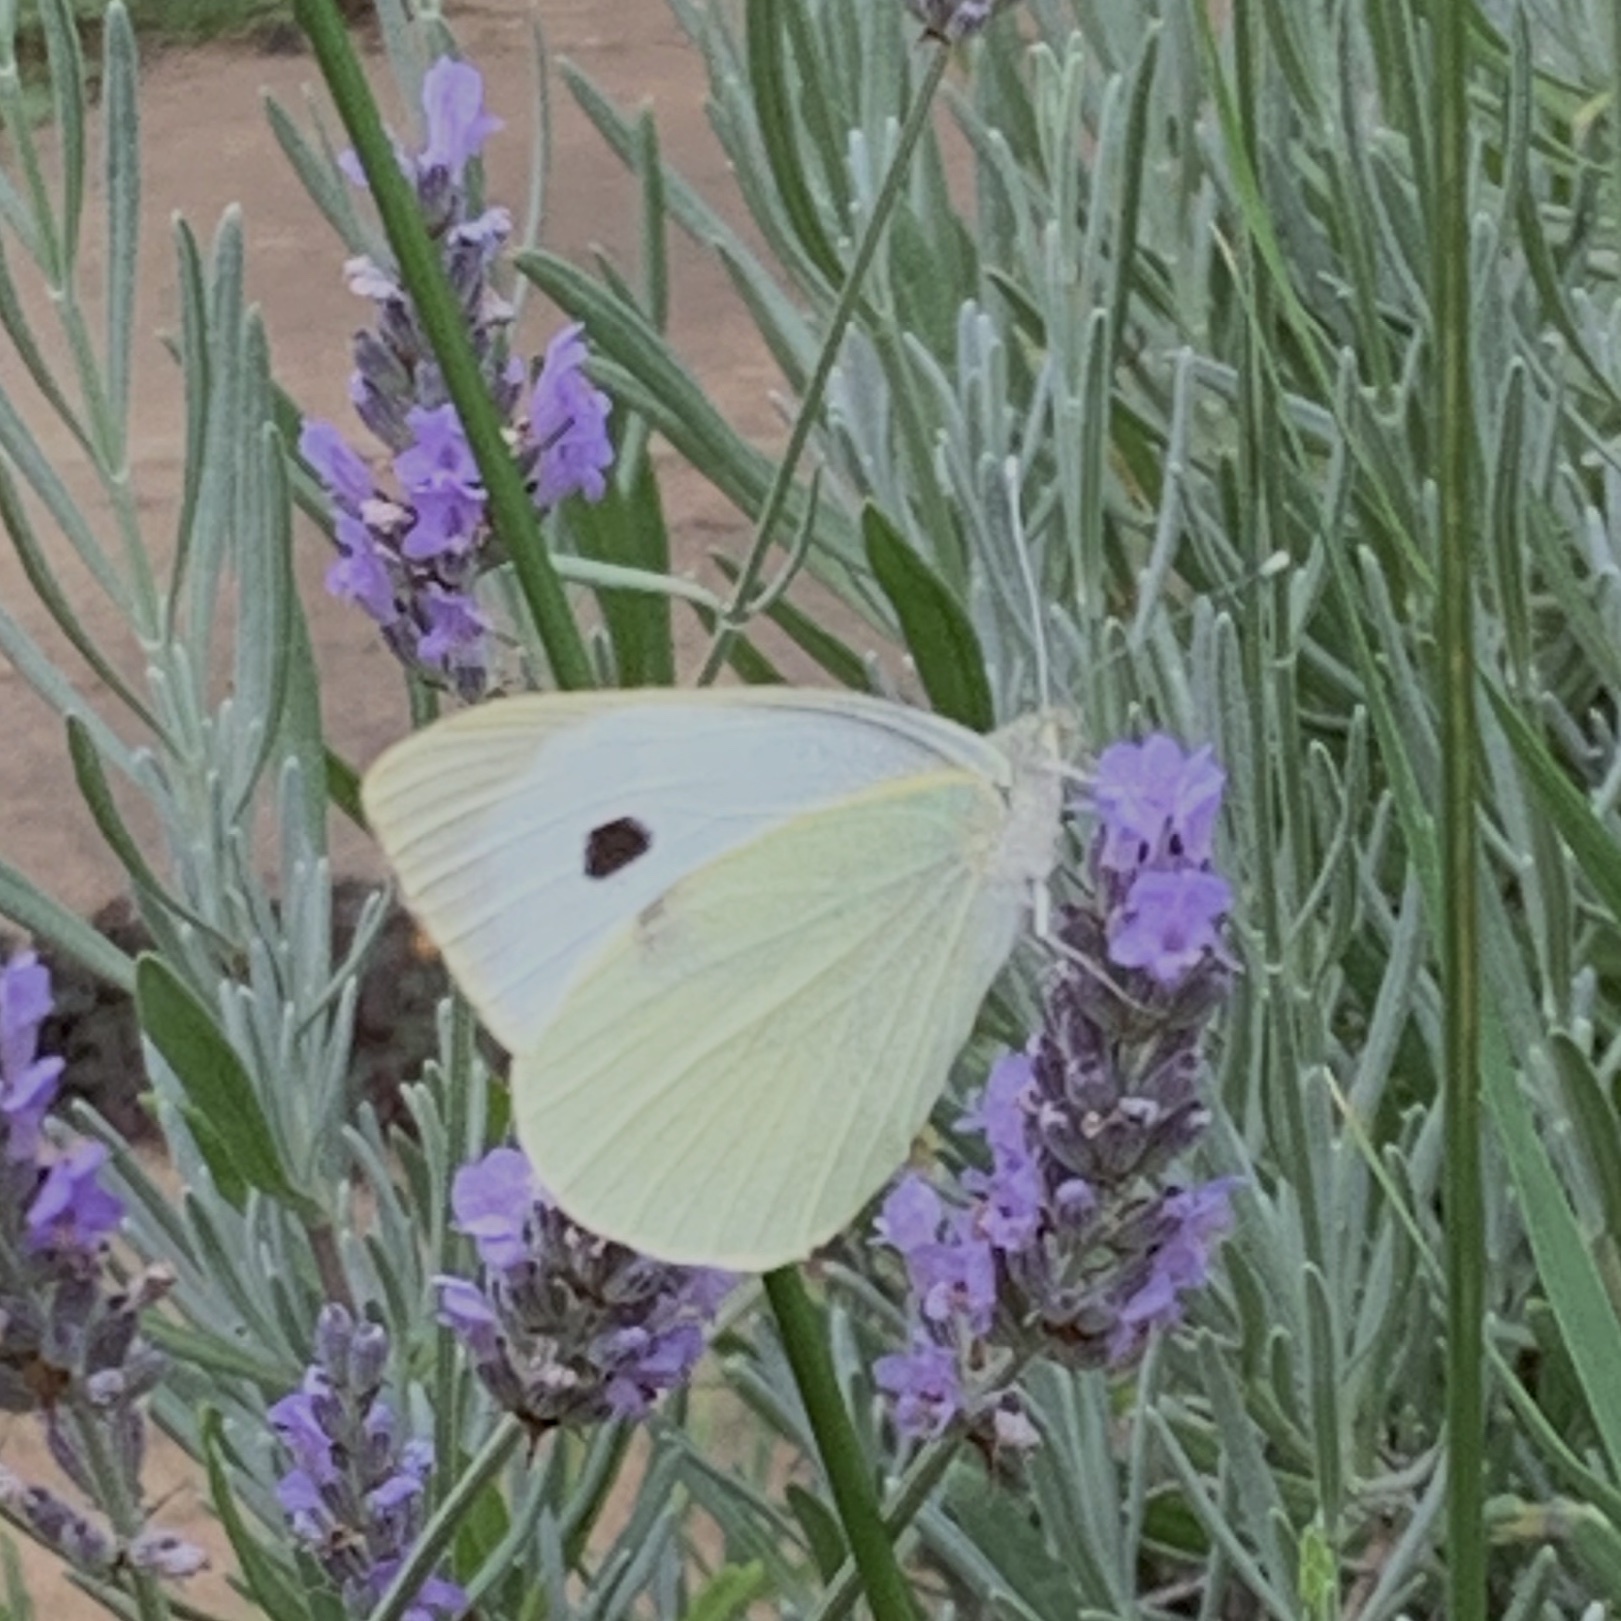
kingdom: Animalia
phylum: Arthropoda
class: Insecta
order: Lepidoptera
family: Pieridae
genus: Pieris
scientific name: Pieris brassicae
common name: Large white
